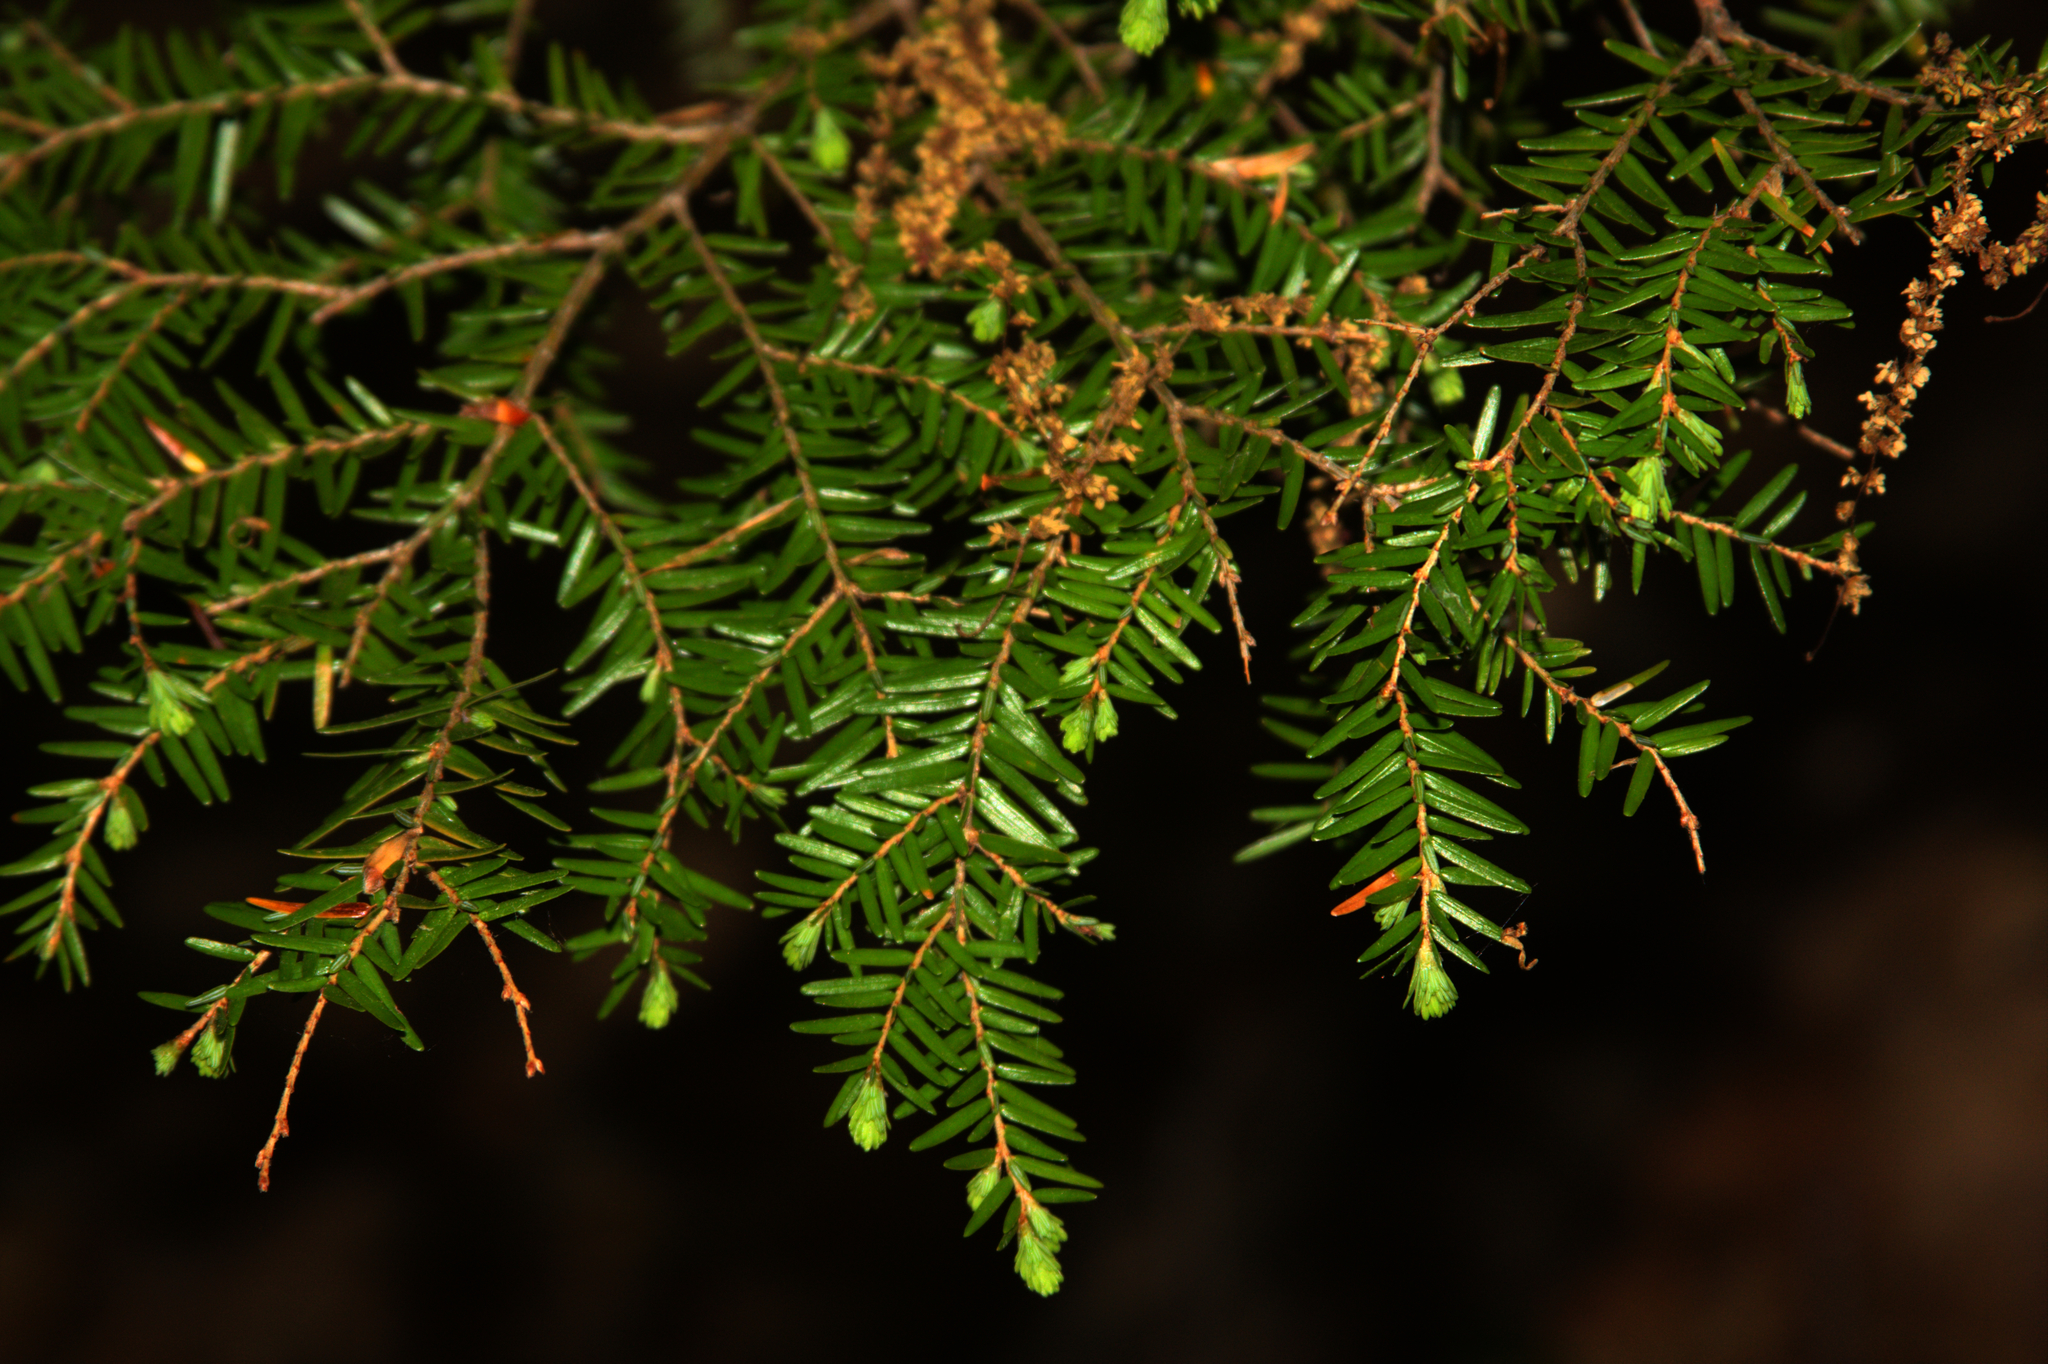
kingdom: Plantae
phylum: Tracheophyta
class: Pinopsida
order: Pinales
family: Pinaceae
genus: Tsuga
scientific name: Tsuga canadensis
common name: Eastern hemlock
